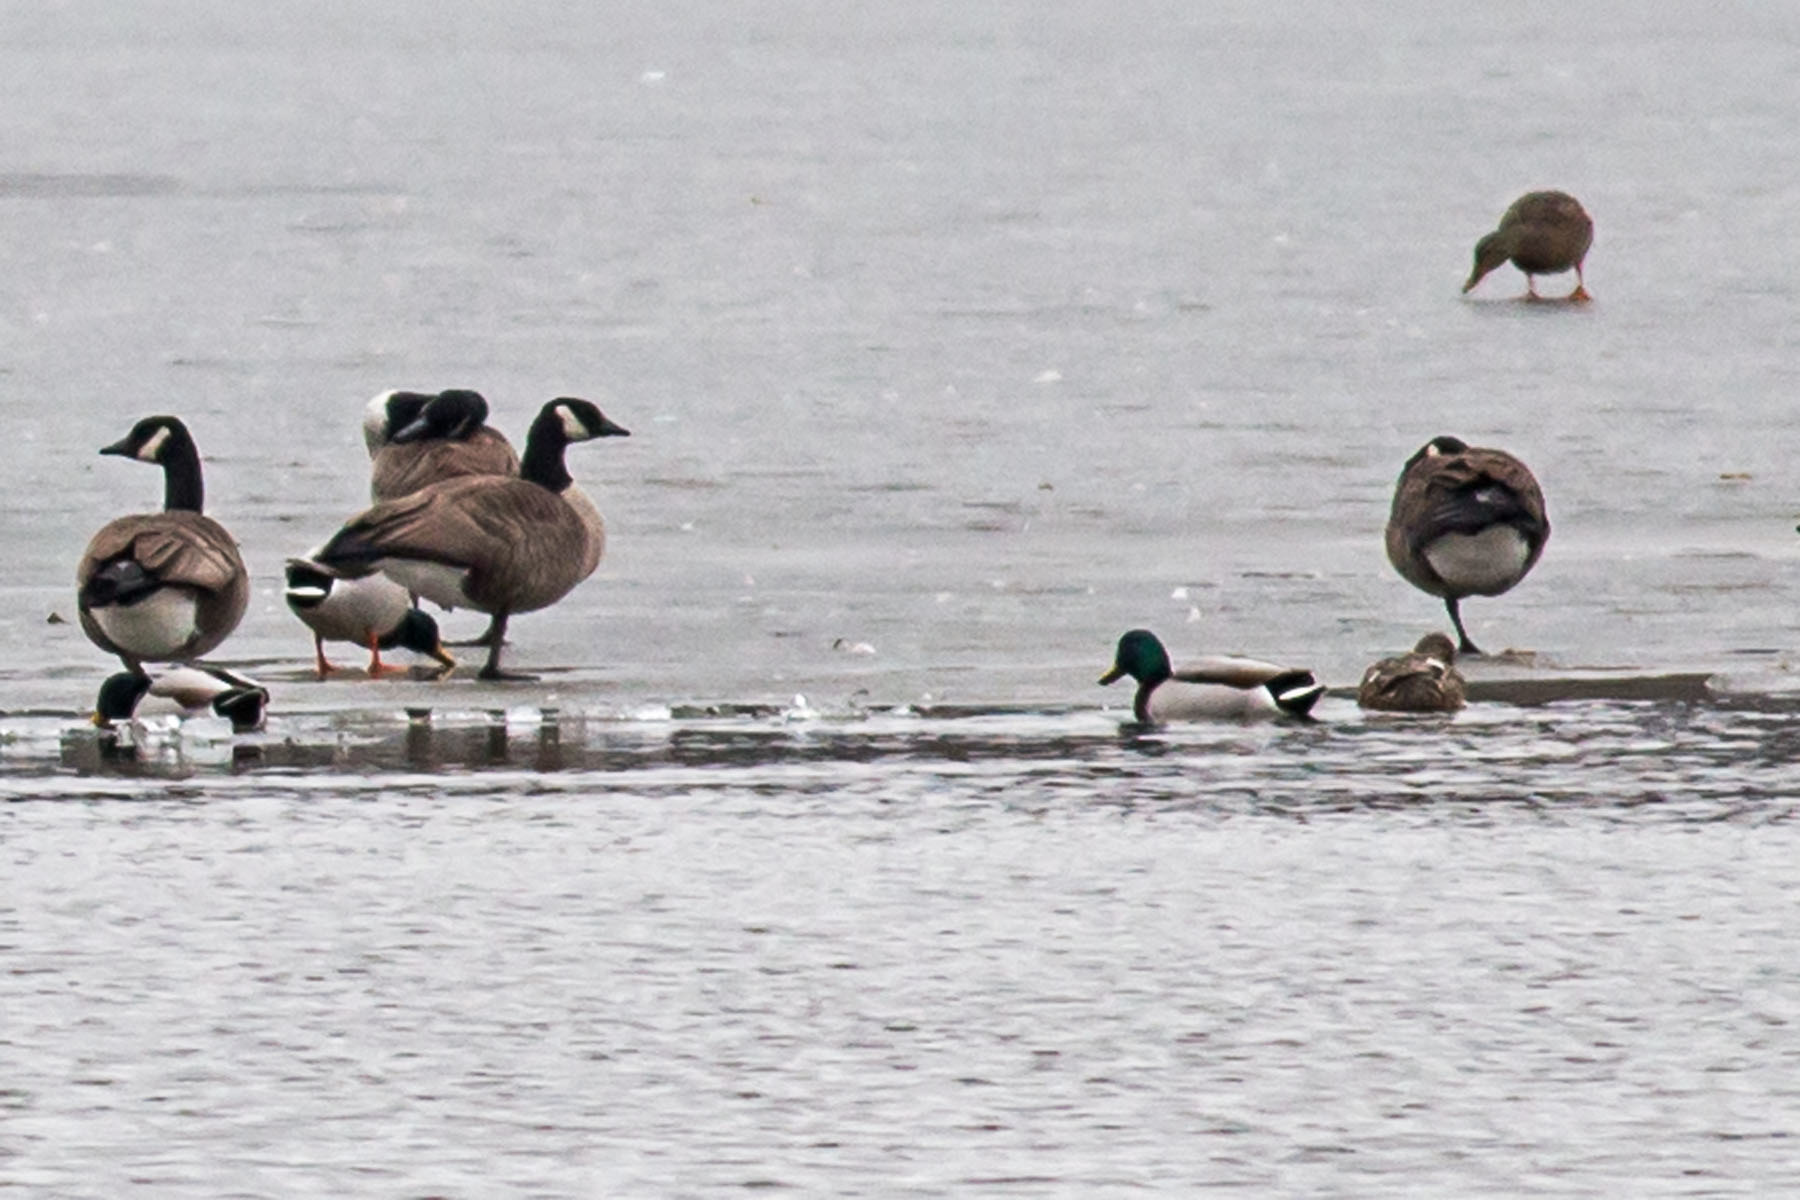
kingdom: Animalia
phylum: Chordata
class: Aves
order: Anseriformes
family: Anatidae
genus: Anas
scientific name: Anas platyrhynchos
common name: Mallard
